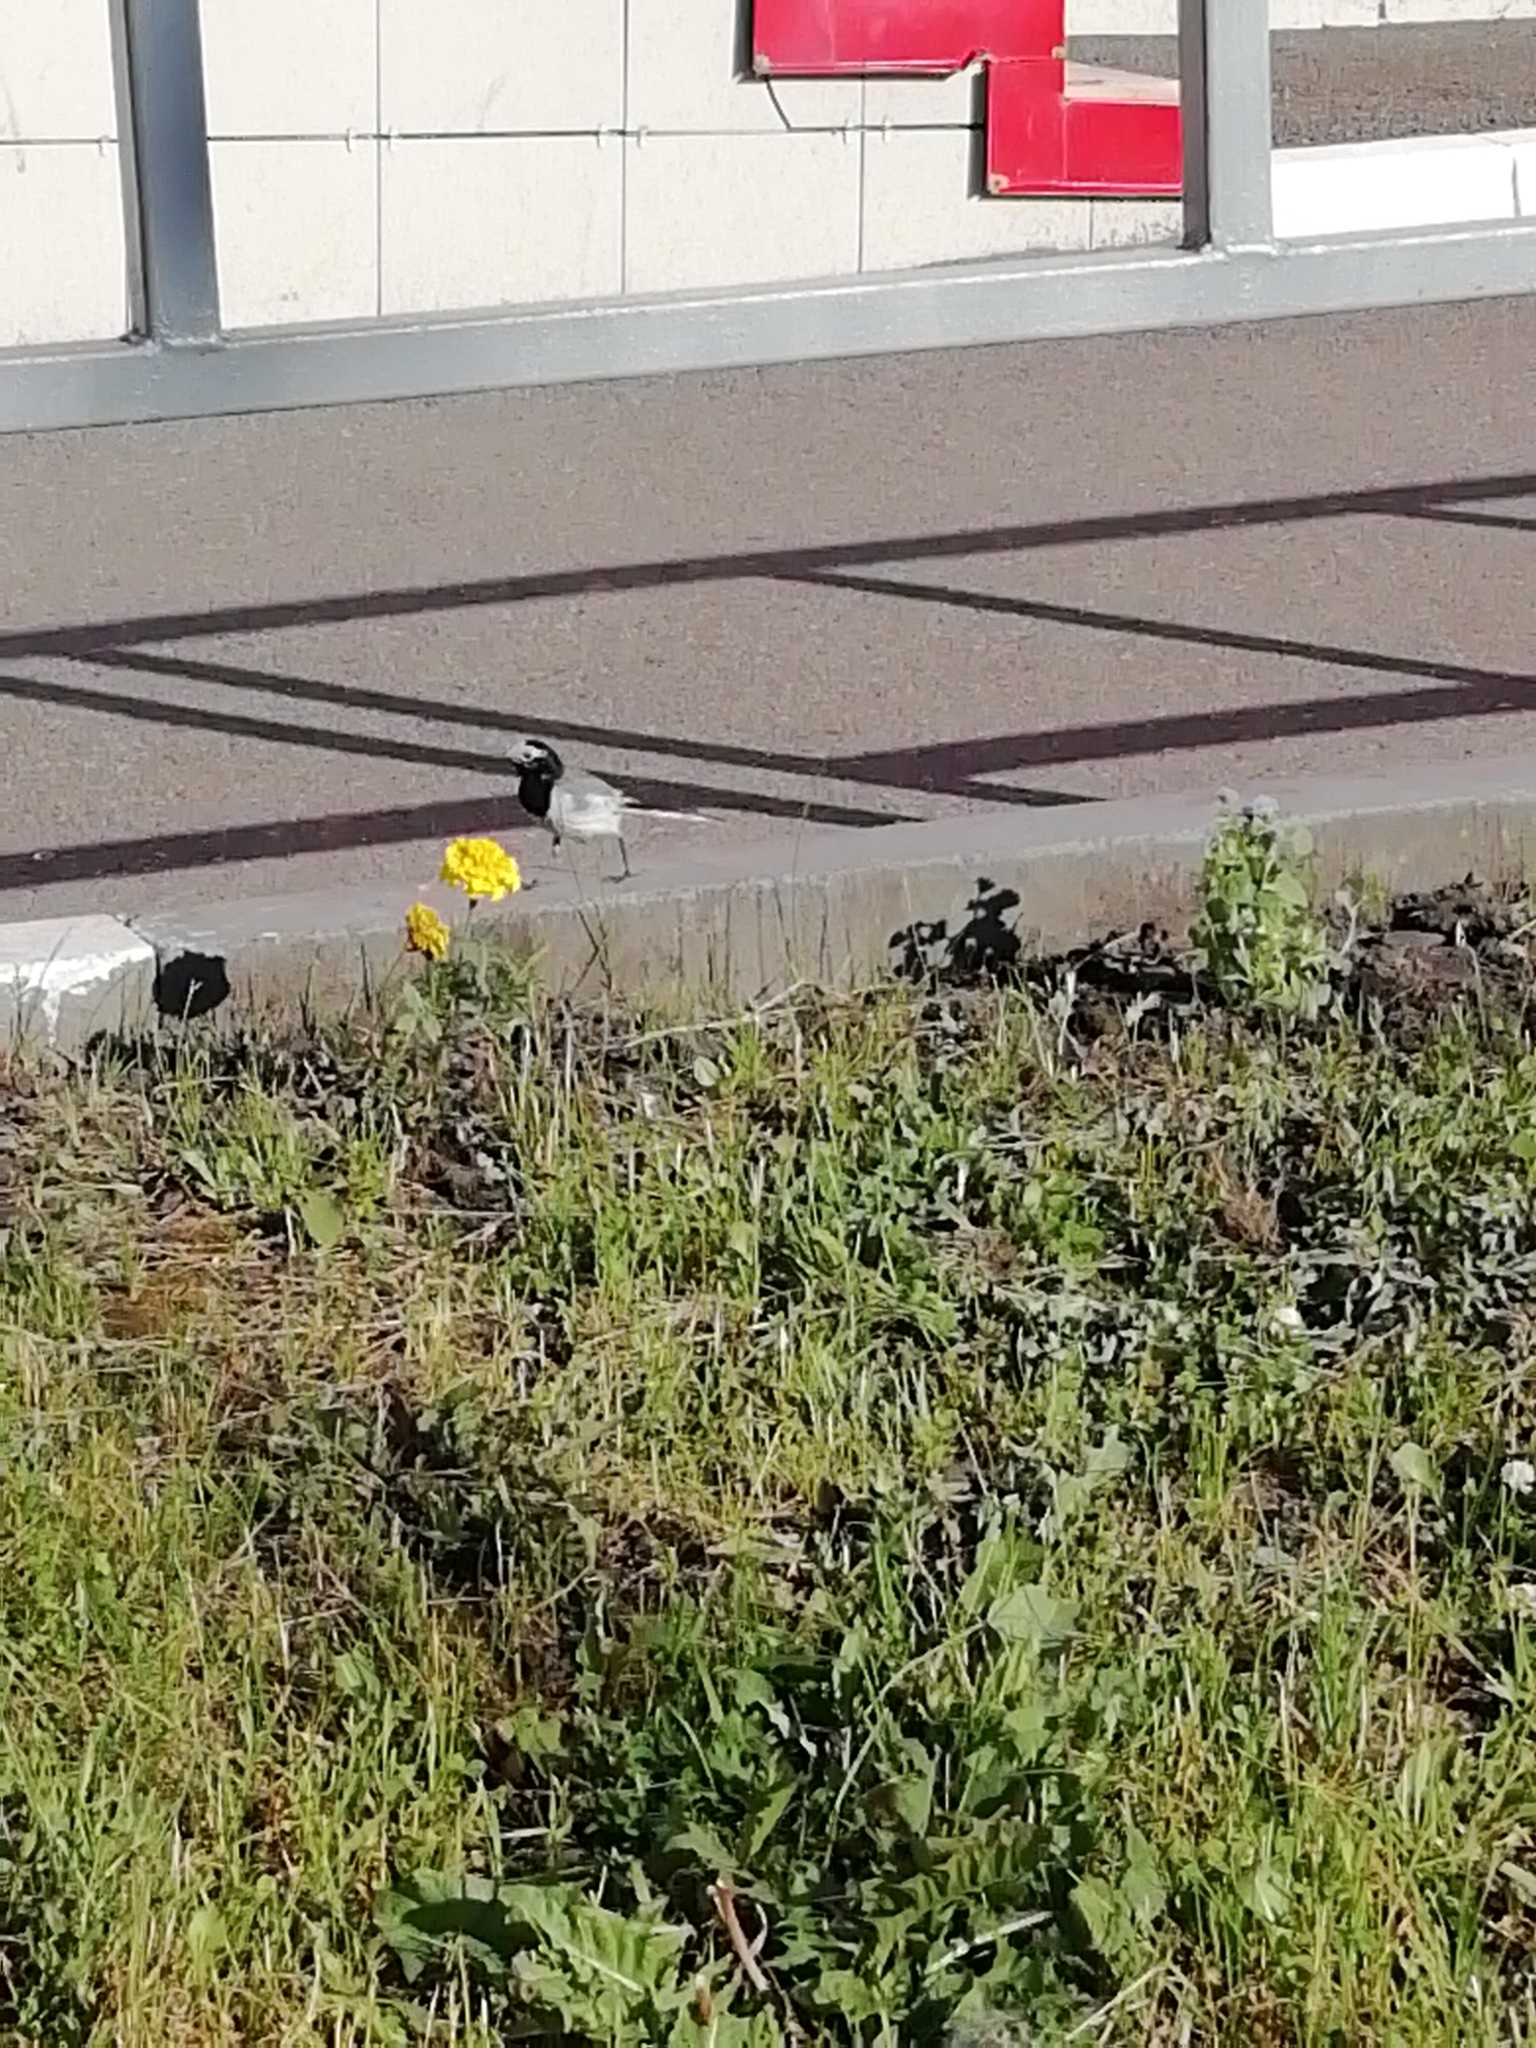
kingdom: Animalia
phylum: Chordata
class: Aves
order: Passeriformes
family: Motacillidae
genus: Motacilla
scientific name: Motacilla alba
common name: White wagtail
